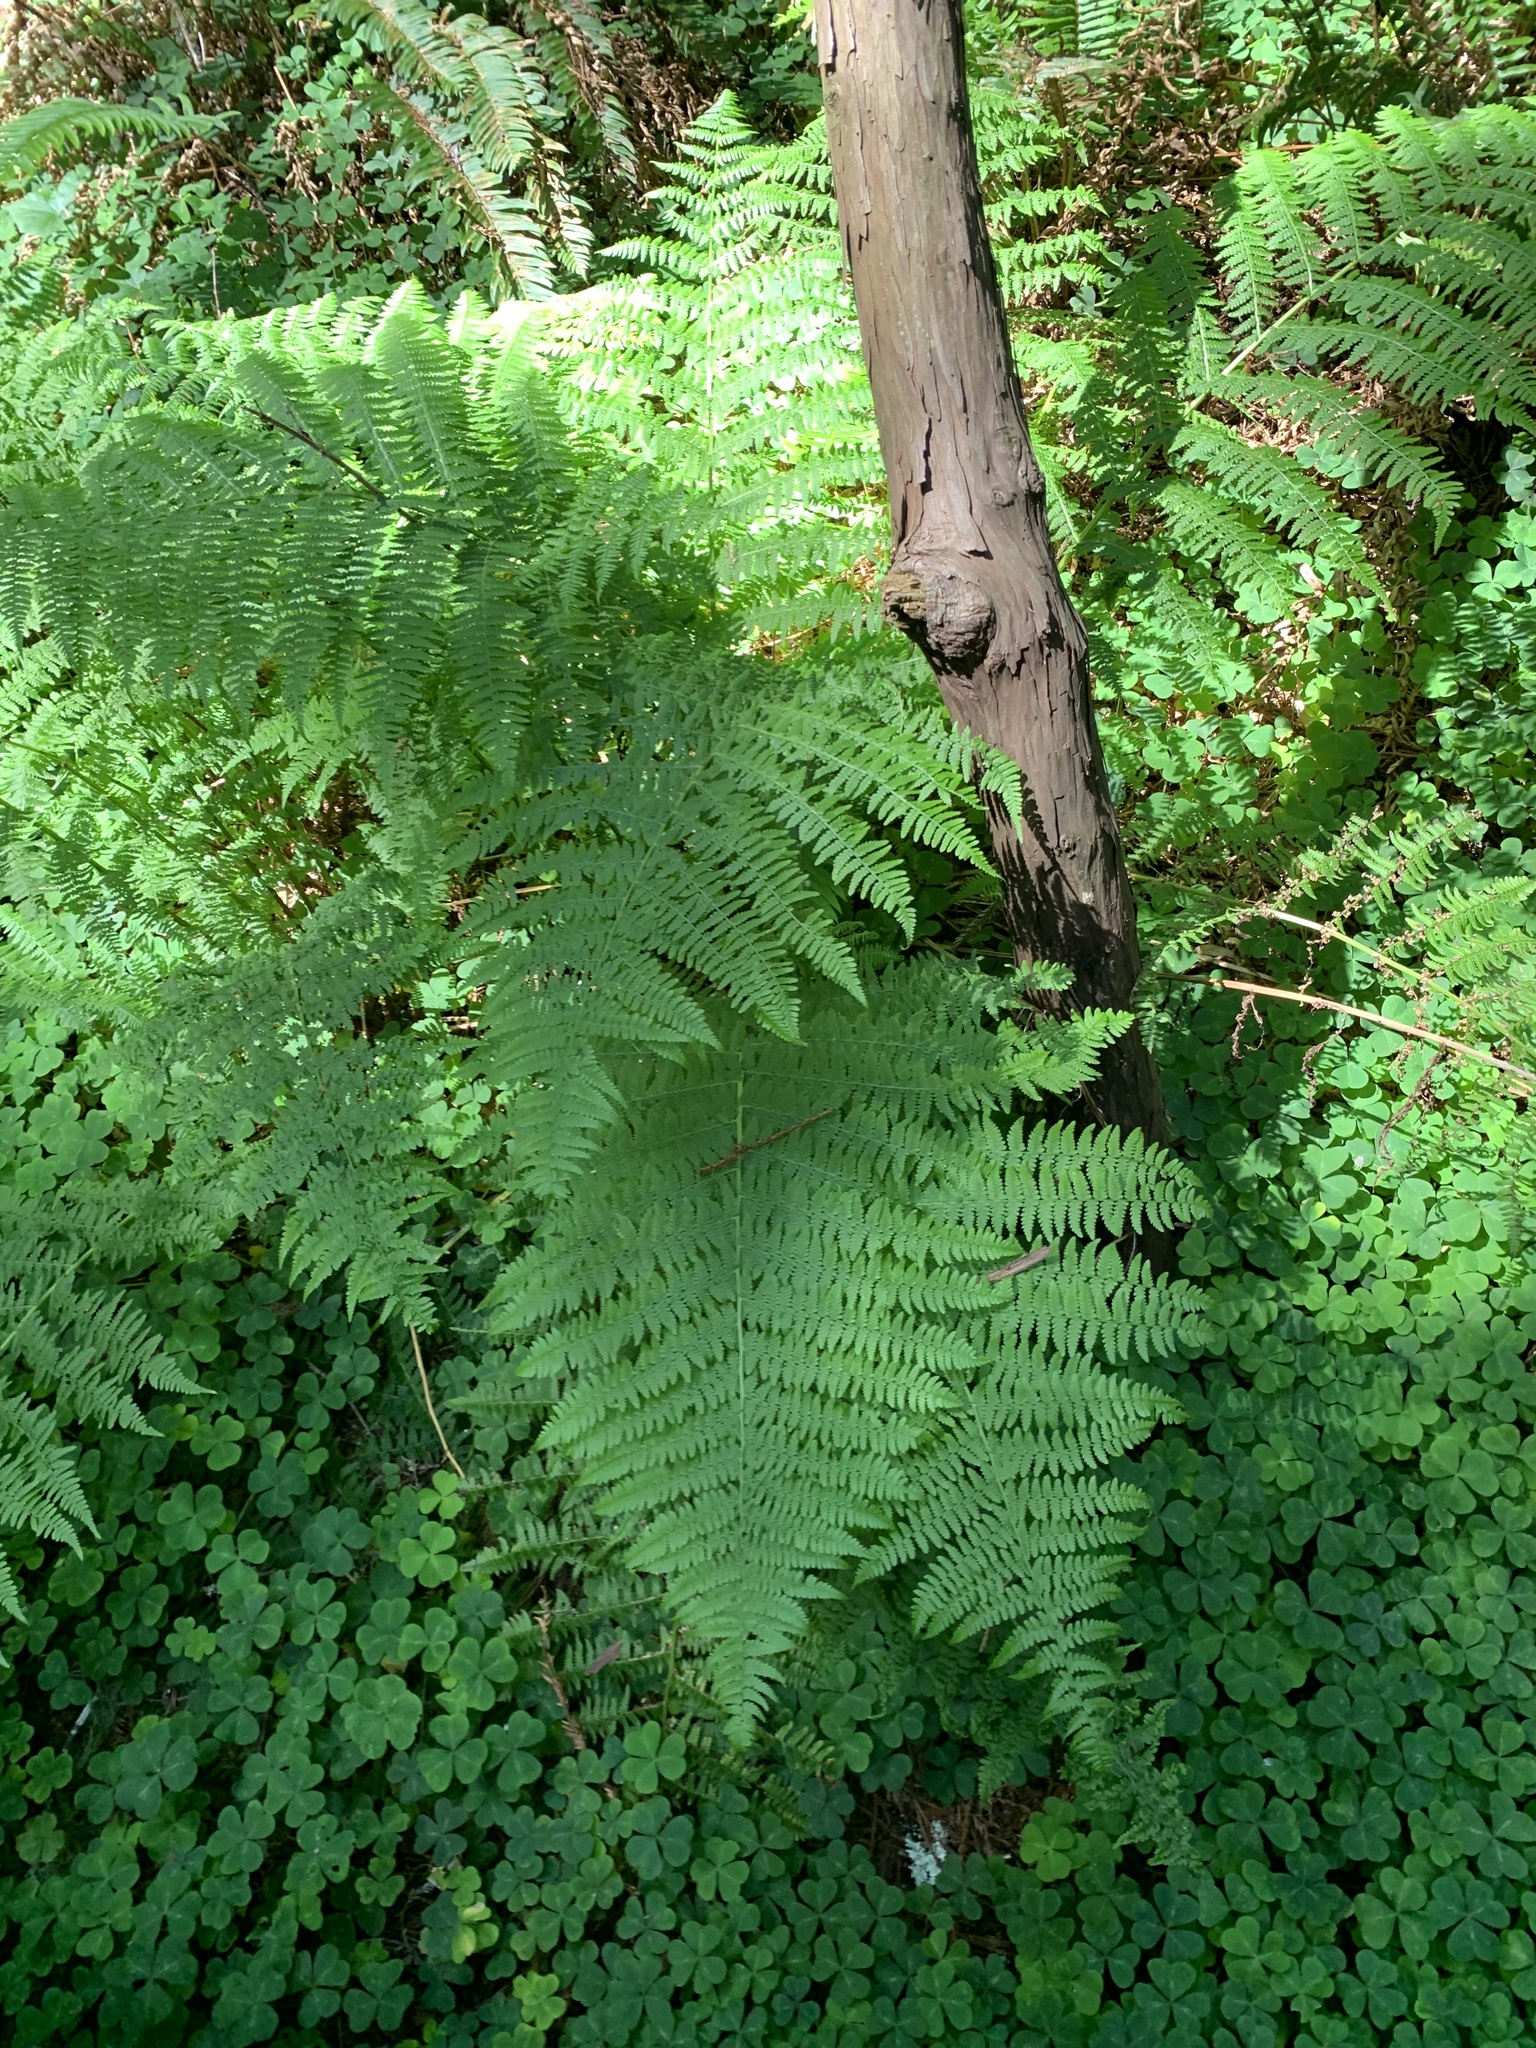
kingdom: Plantae
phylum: Tracheophyta
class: Polypodiopsida
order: Polypodiales
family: Athyriaceae
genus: Athyrium
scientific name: Athyrium filix-femina
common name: Lady fern
